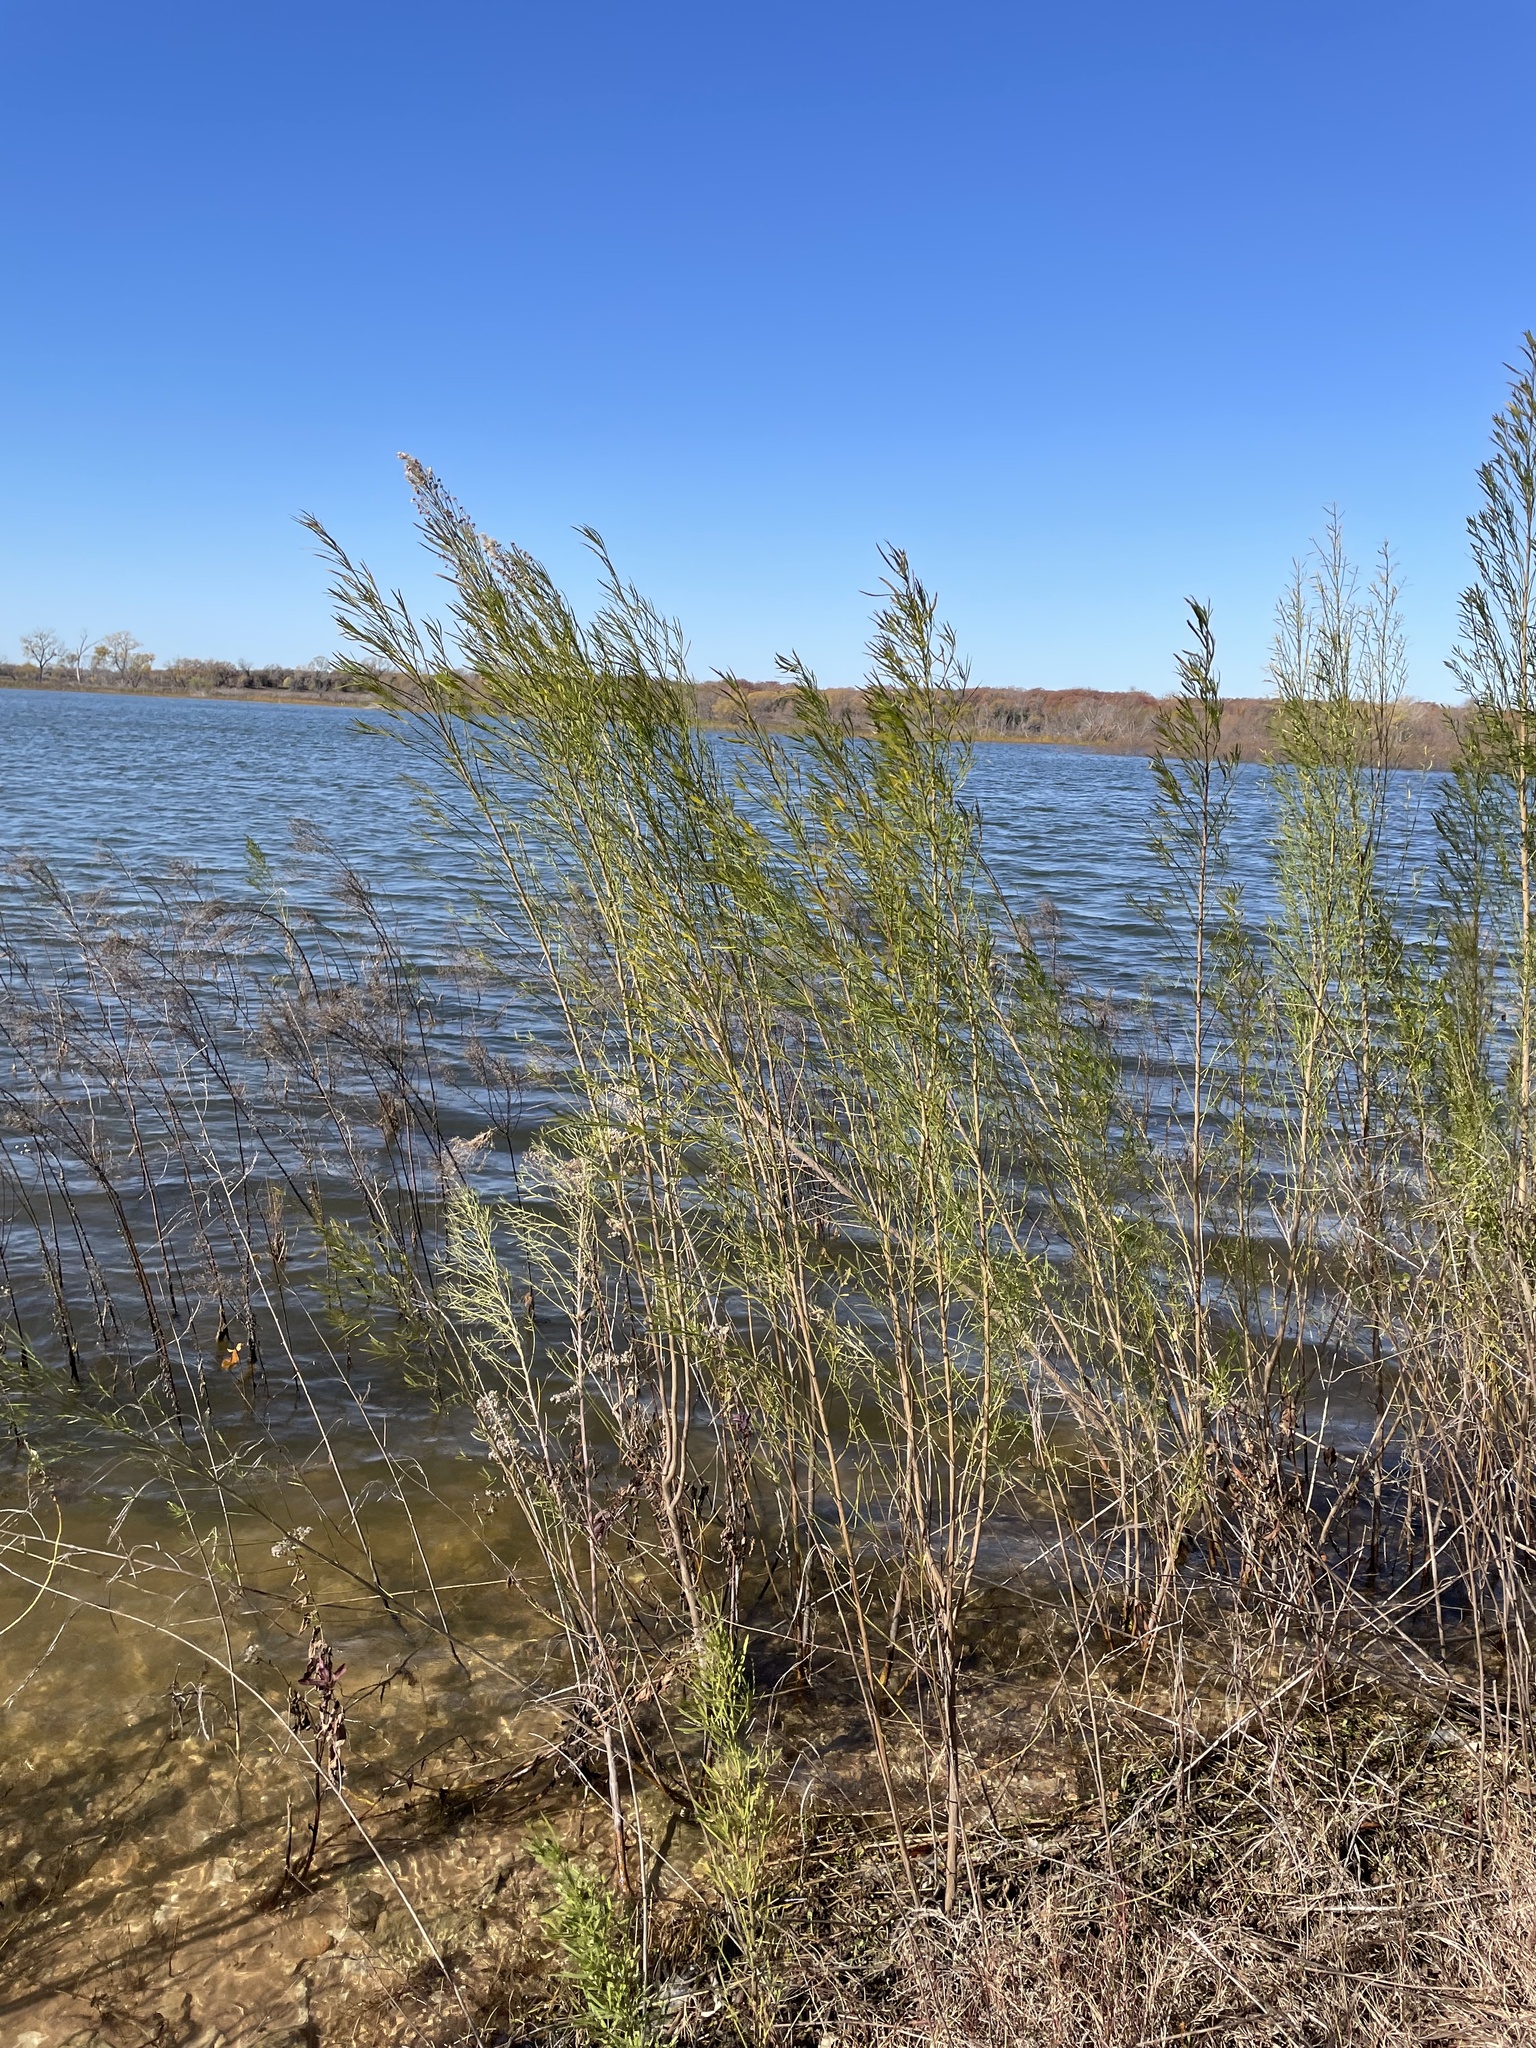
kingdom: Plantae
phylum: Tracheophyta
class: Magnoliopsida
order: Asterales
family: Asteraceae
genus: Baccharis
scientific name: Baccharis neglecta
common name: Roosevelt-weed
